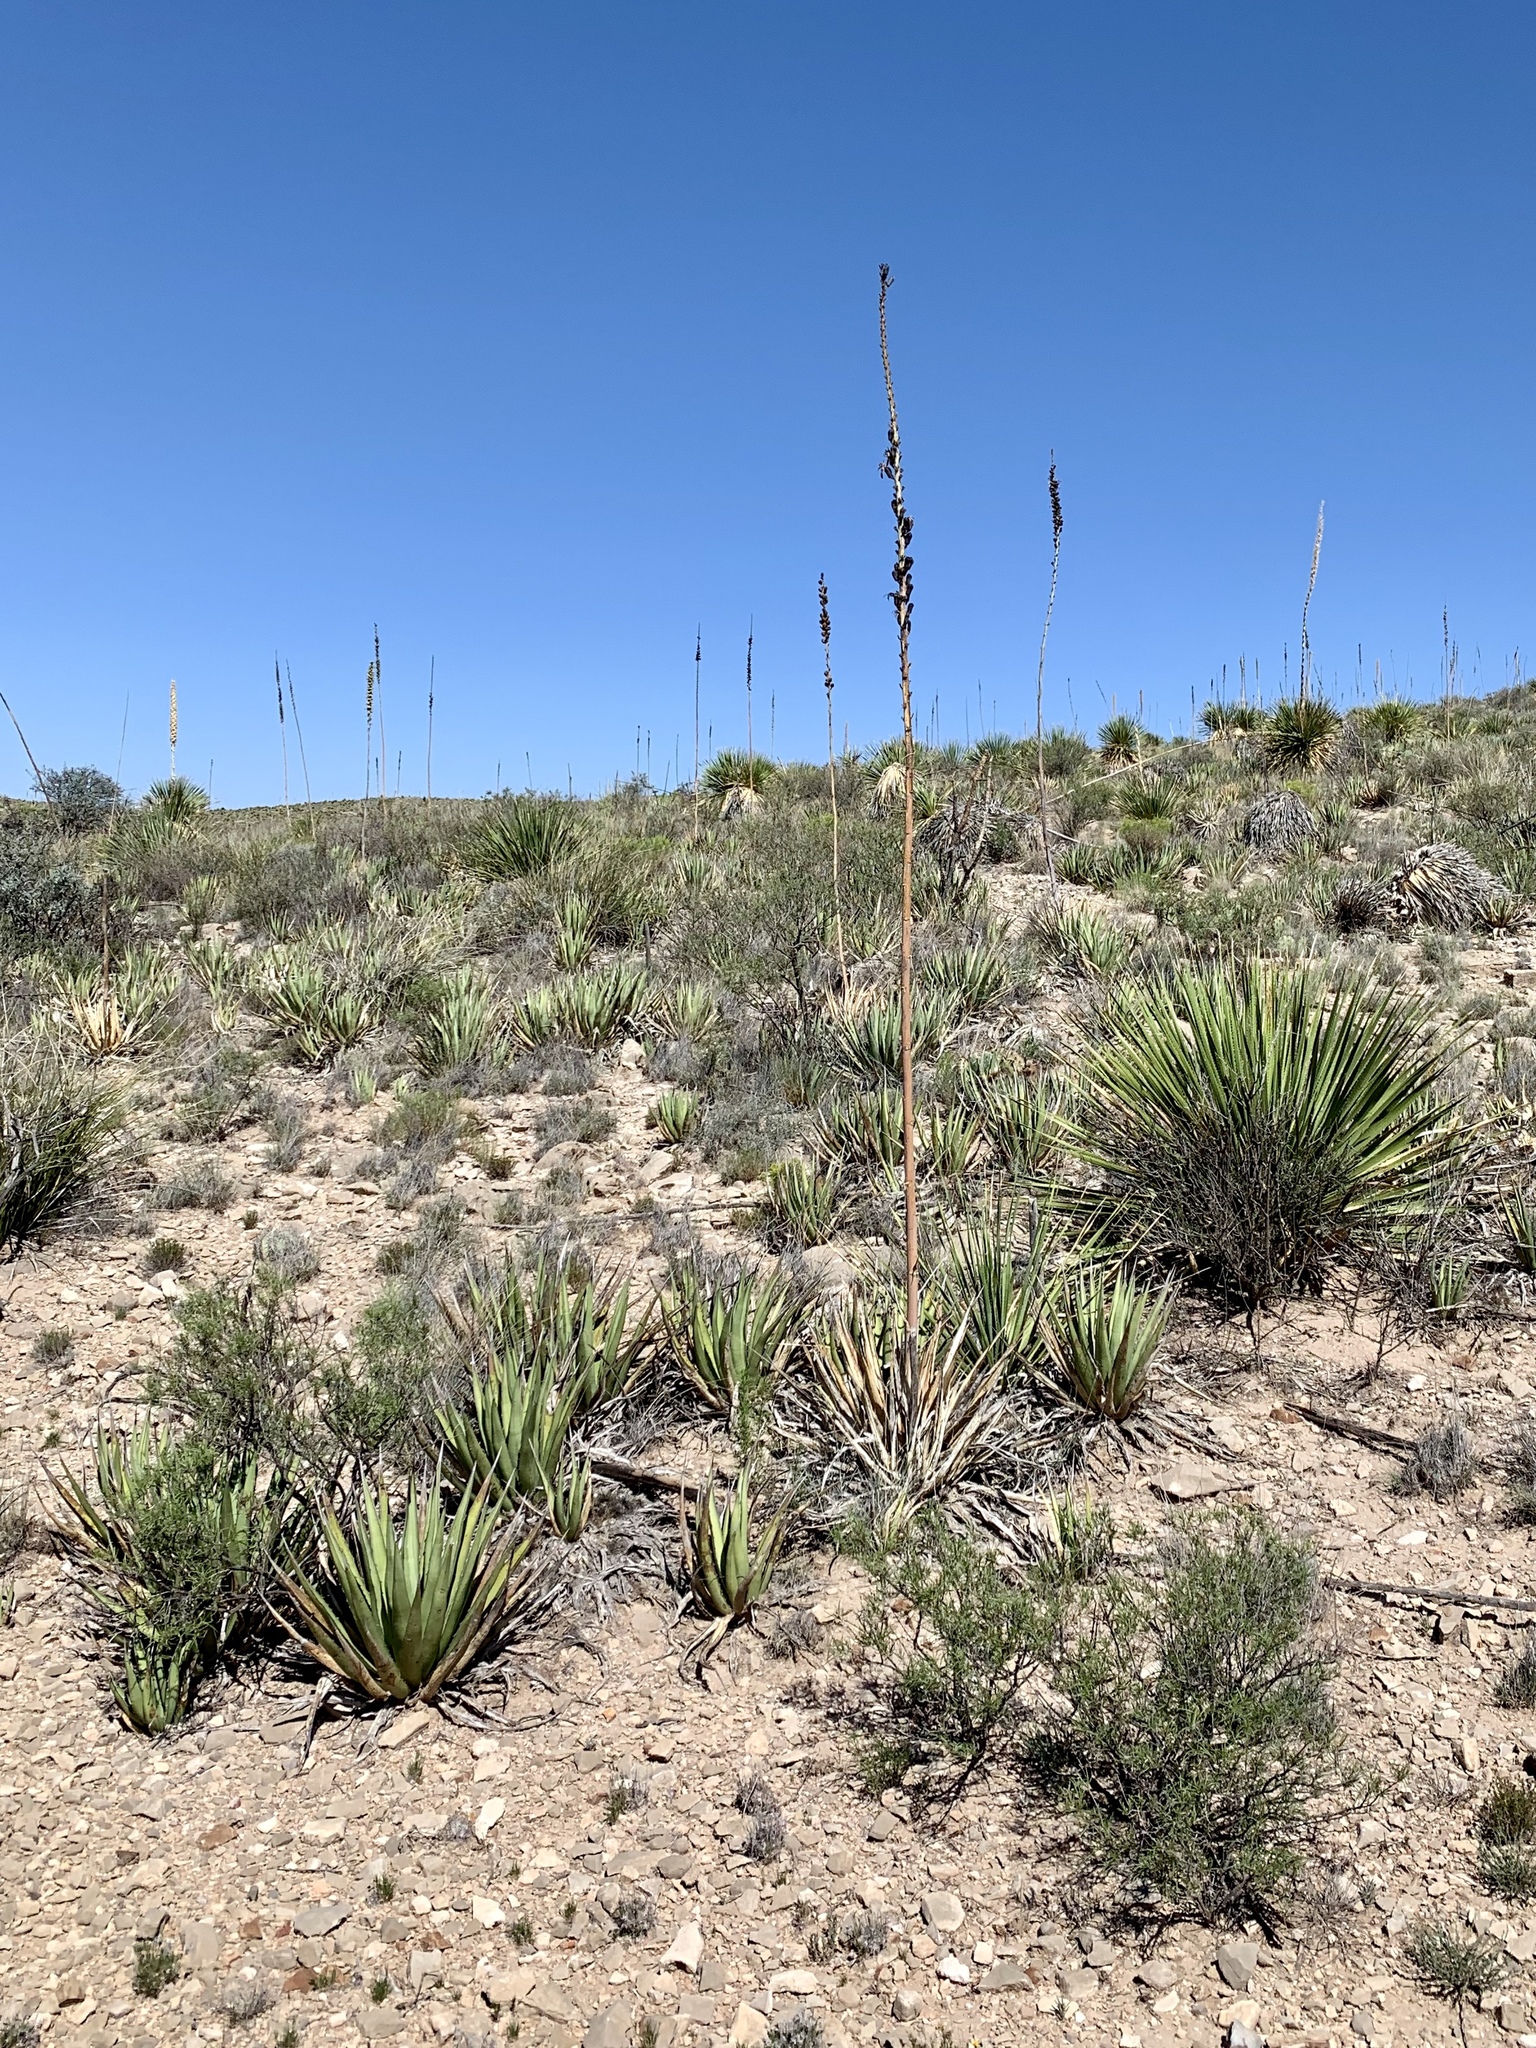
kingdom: Plantae
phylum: Tracheophyta
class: Liliopsida
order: Asparagales
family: Asparagaceae
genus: Agave
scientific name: Agave lechuguilla
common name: Lecheguilla agave
